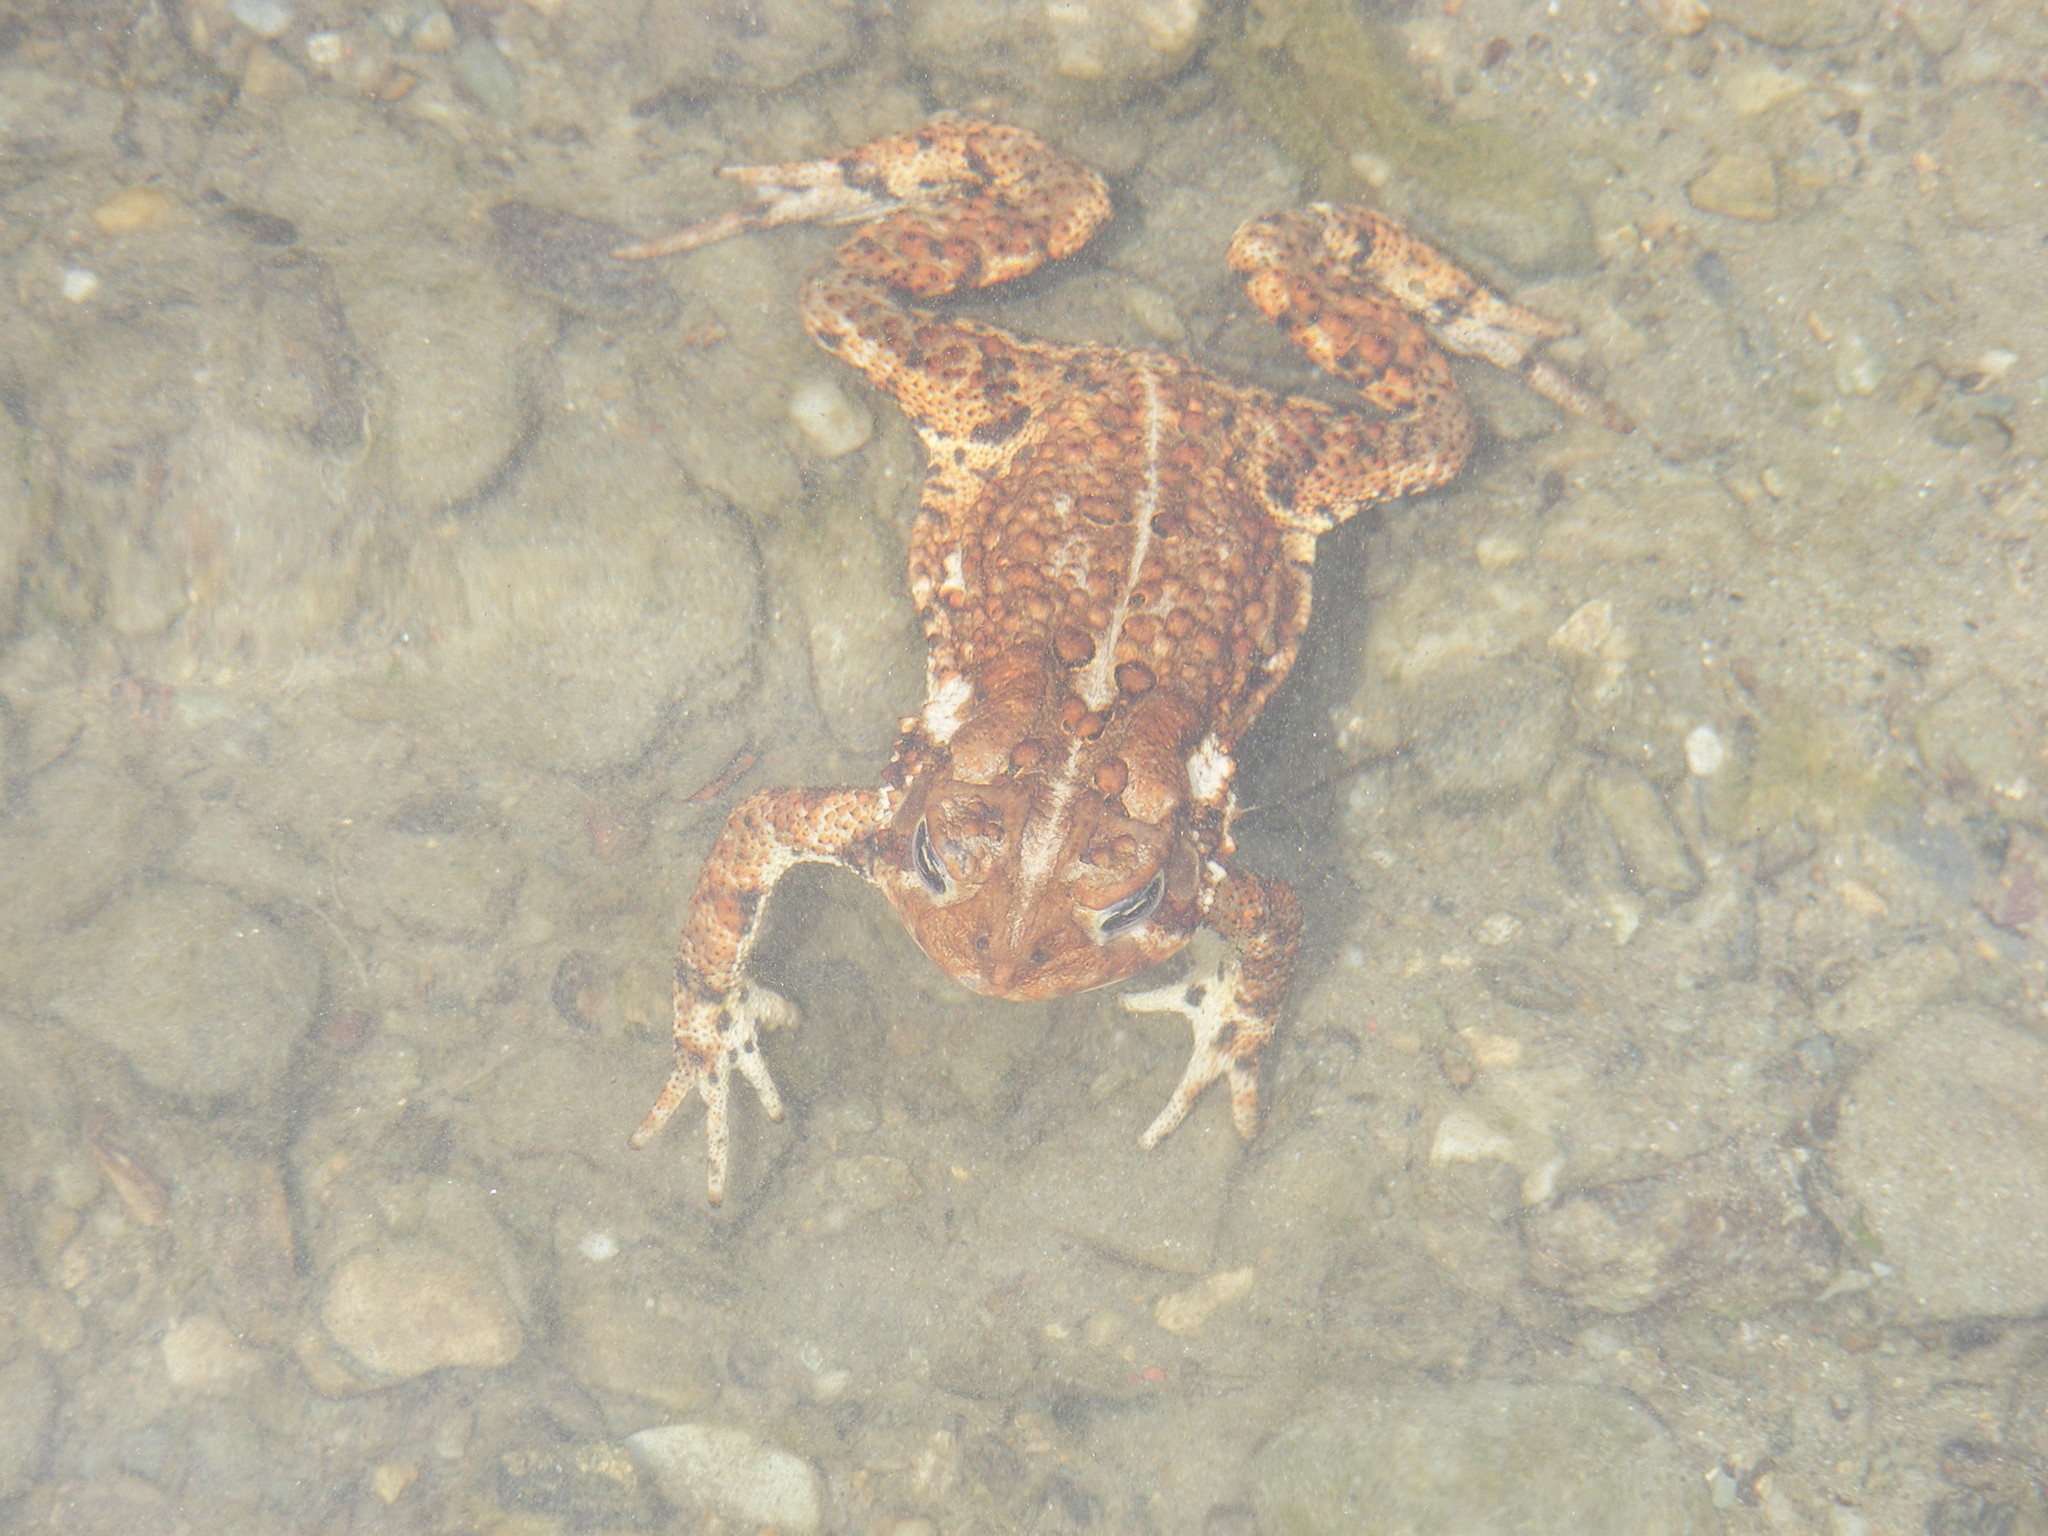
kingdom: Animalia
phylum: Chordata
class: Amphibia
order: Anura
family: Bufonidae
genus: Anaxyrus
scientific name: Anaxyrus americanus
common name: American toad
